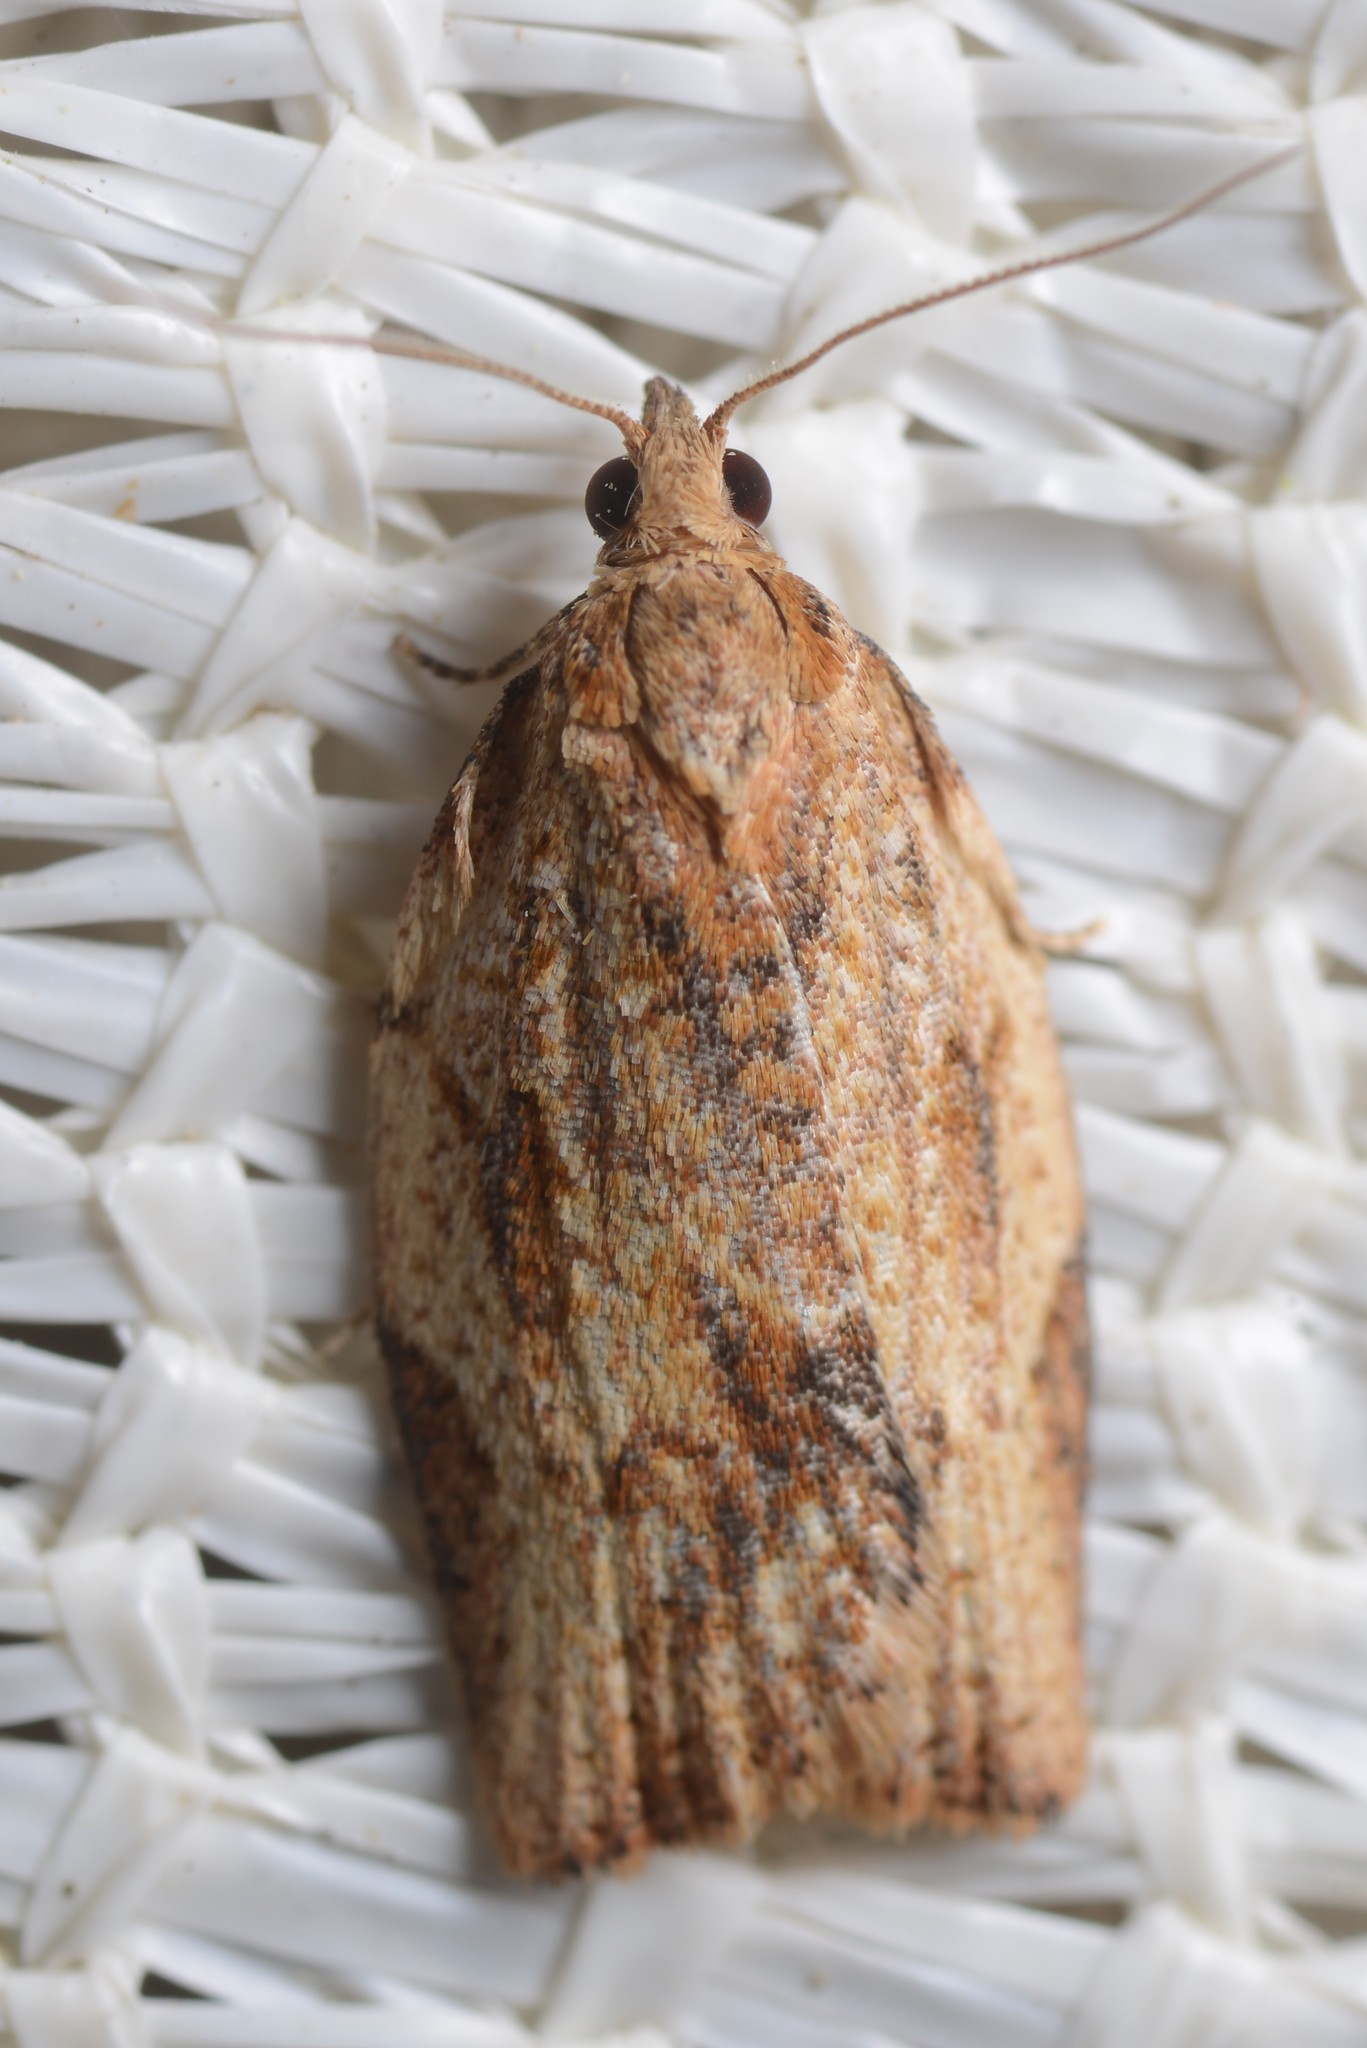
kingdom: Animalia
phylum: Arthropoda
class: Insecta
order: Lepidoptera
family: Tortricidae
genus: Epiphyas
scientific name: Epiphyas postvittana
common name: Light brown apple moth
